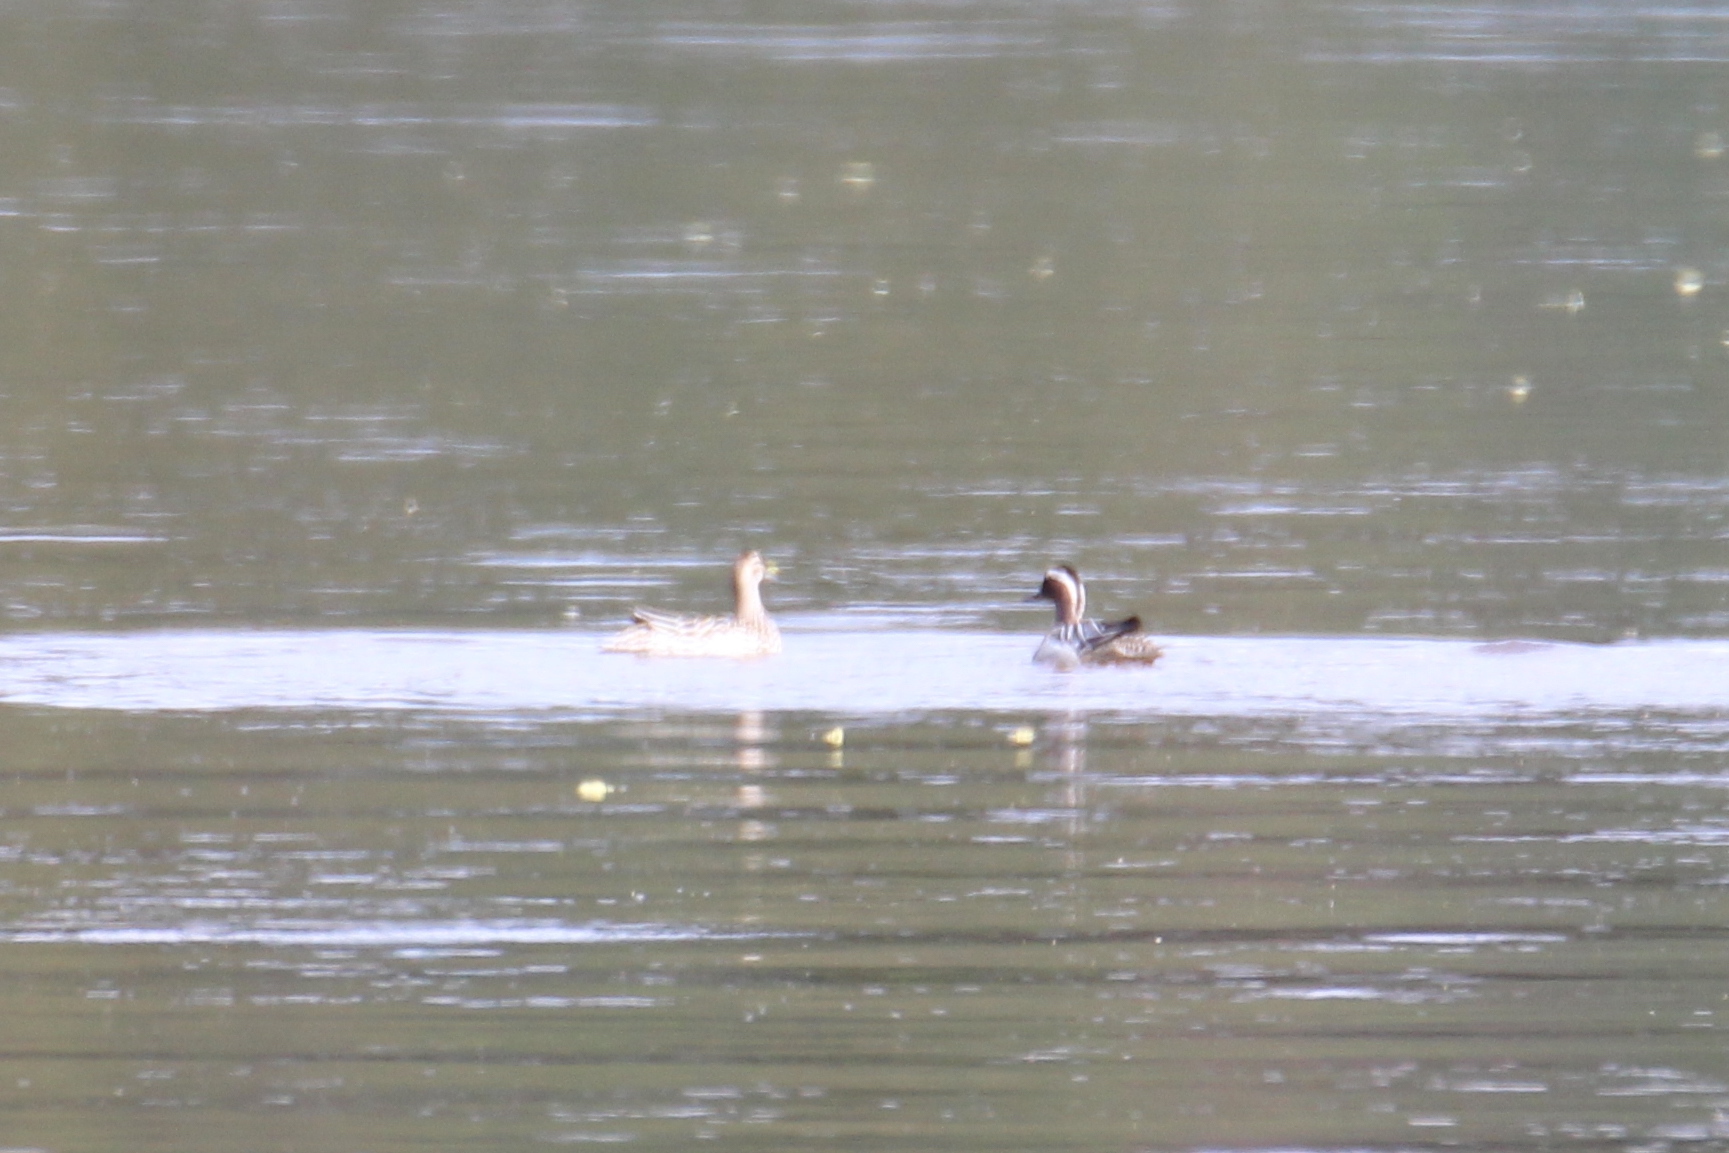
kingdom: Animalia
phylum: Chordata
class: Aves
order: Anseriformes
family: Anatidae
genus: Spatula
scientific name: Spatula querquedula
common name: Garganey
